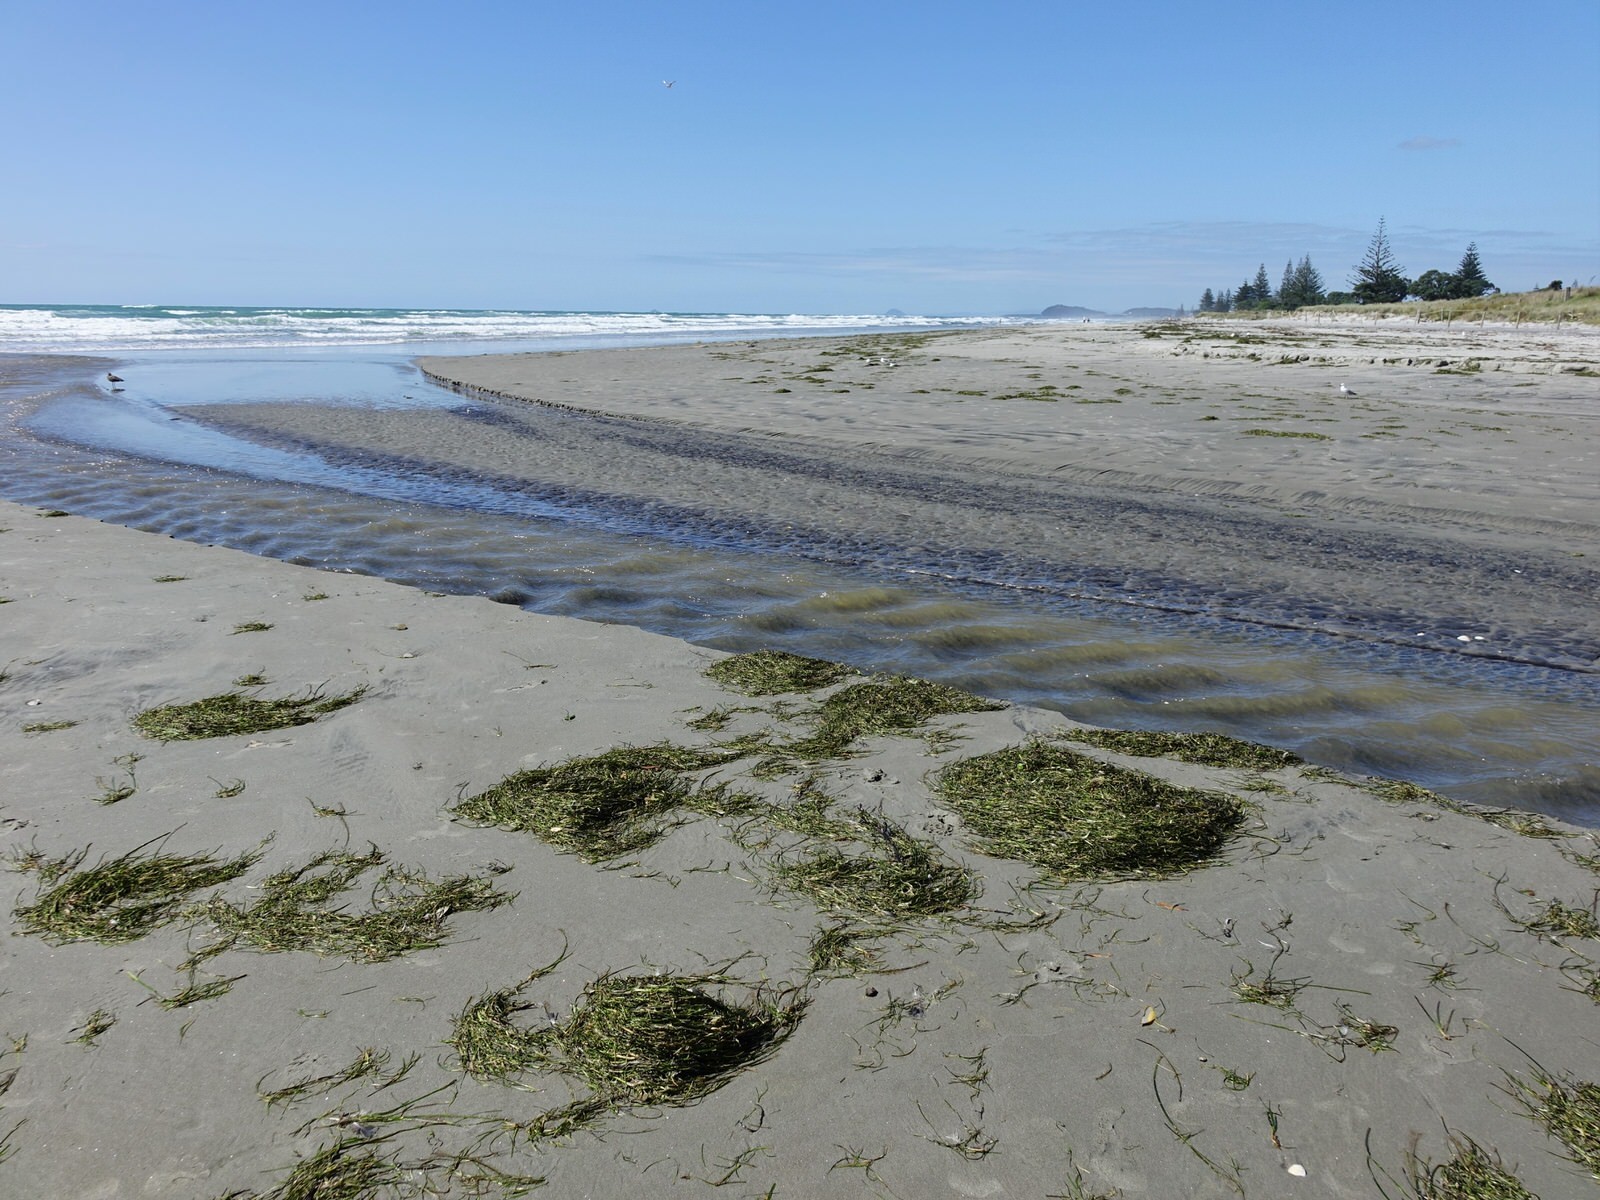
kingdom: Plantae
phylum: Tracheophyta
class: Liliopsida
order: Alismatales
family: Zosteraceae
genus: Zostera
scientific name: Zostera novazelandica
